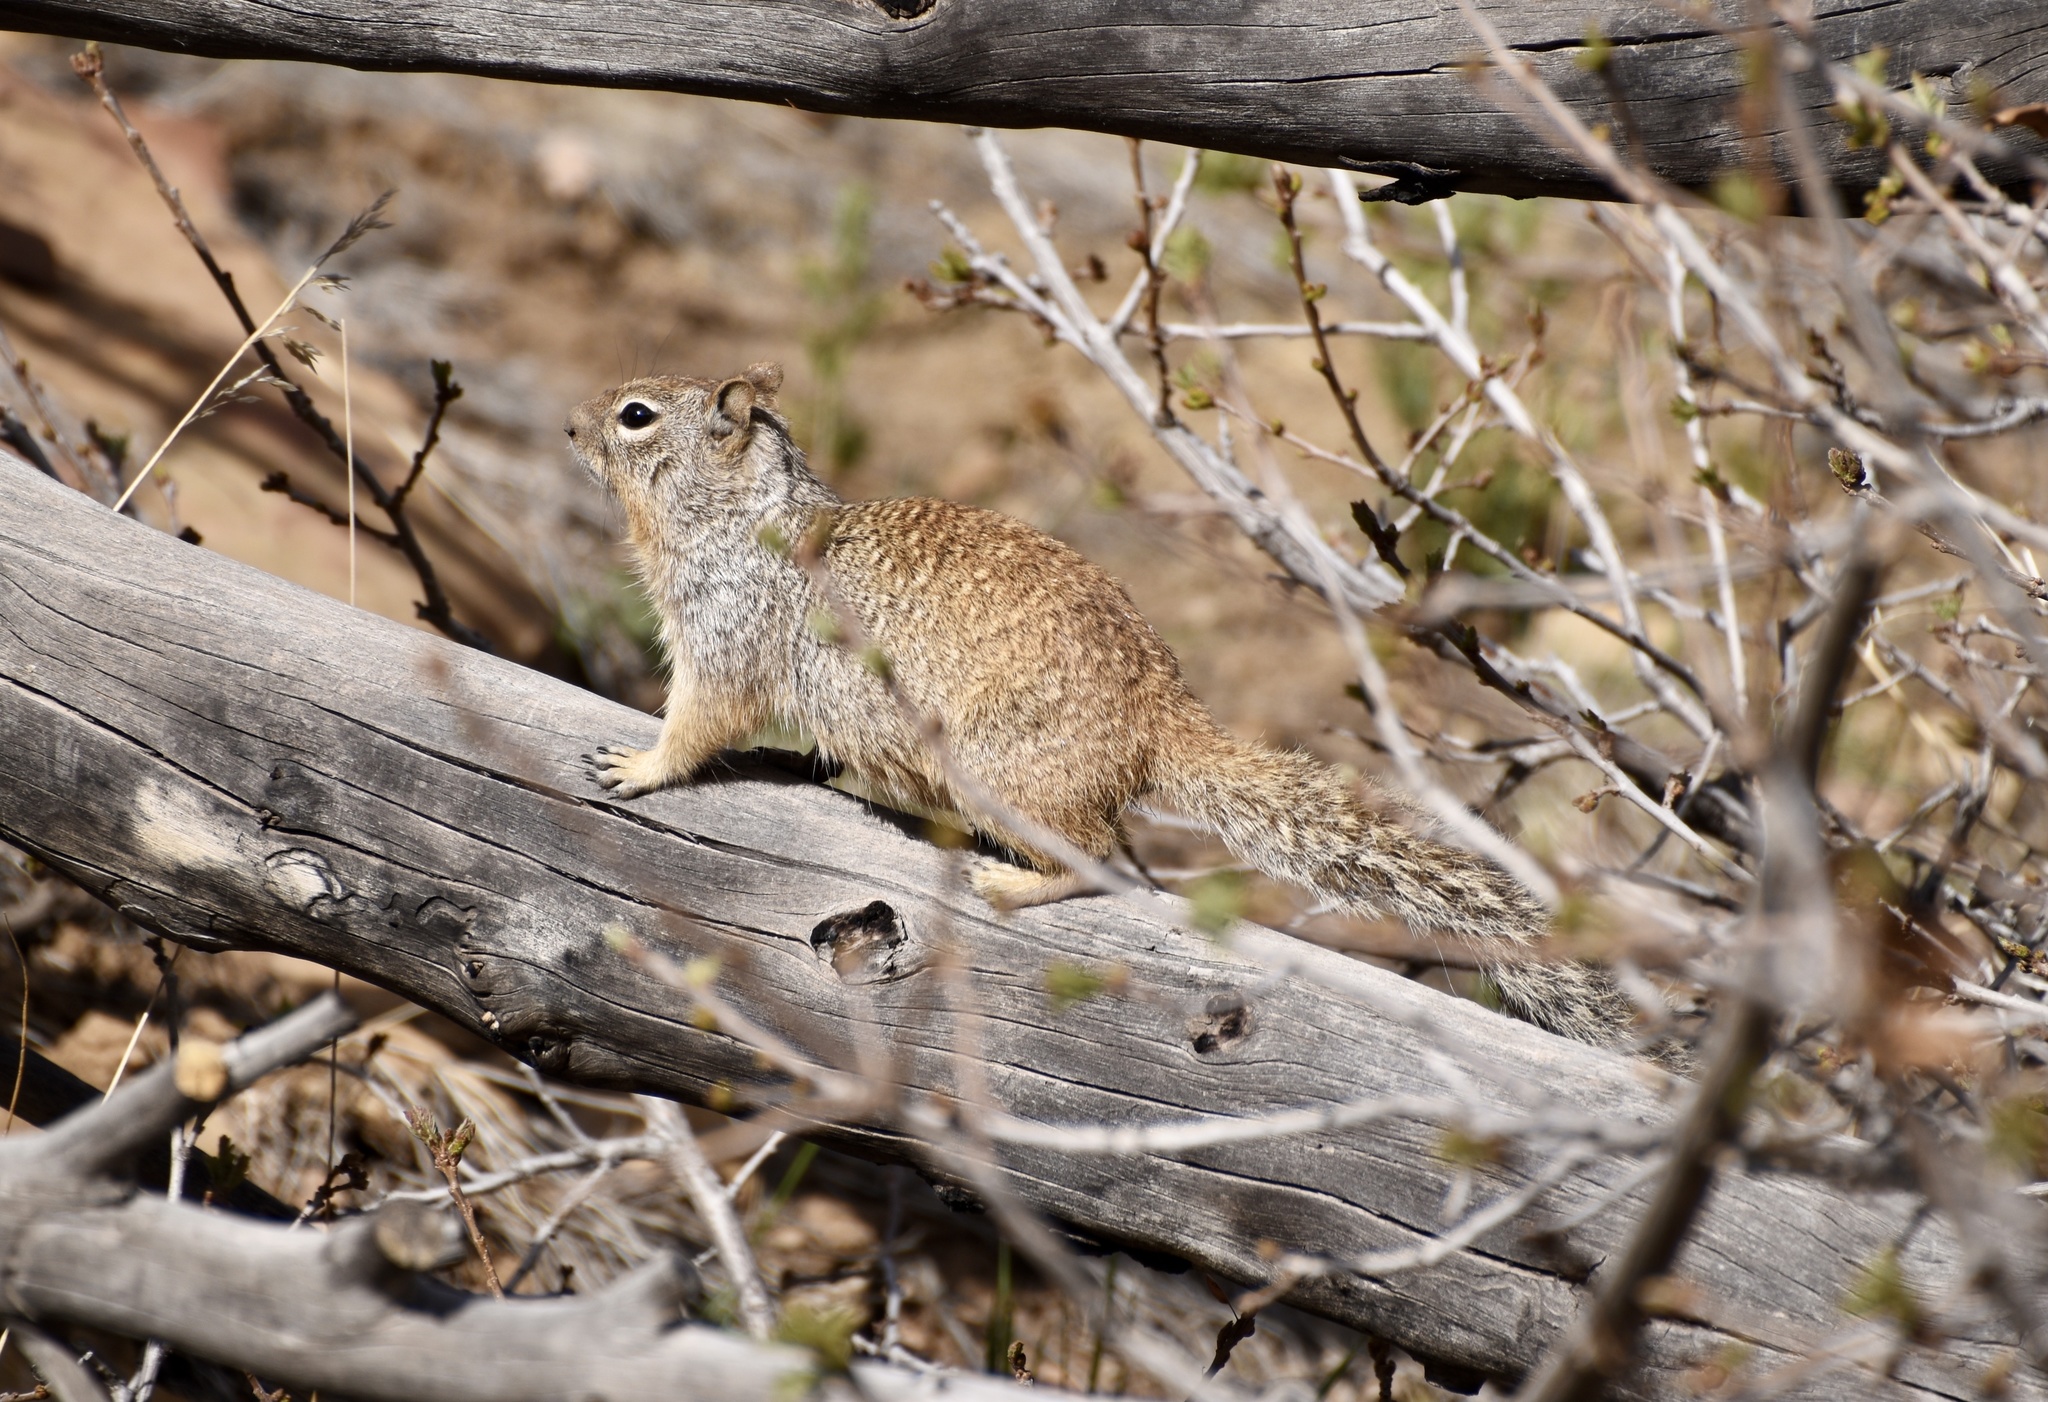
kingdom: Animalia
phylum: Chordata
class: Mammalia
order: Rodentia
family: Sciuridae
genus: Otospermophilus
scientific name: Otospermophilus variegatus
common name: Rock squirrel
